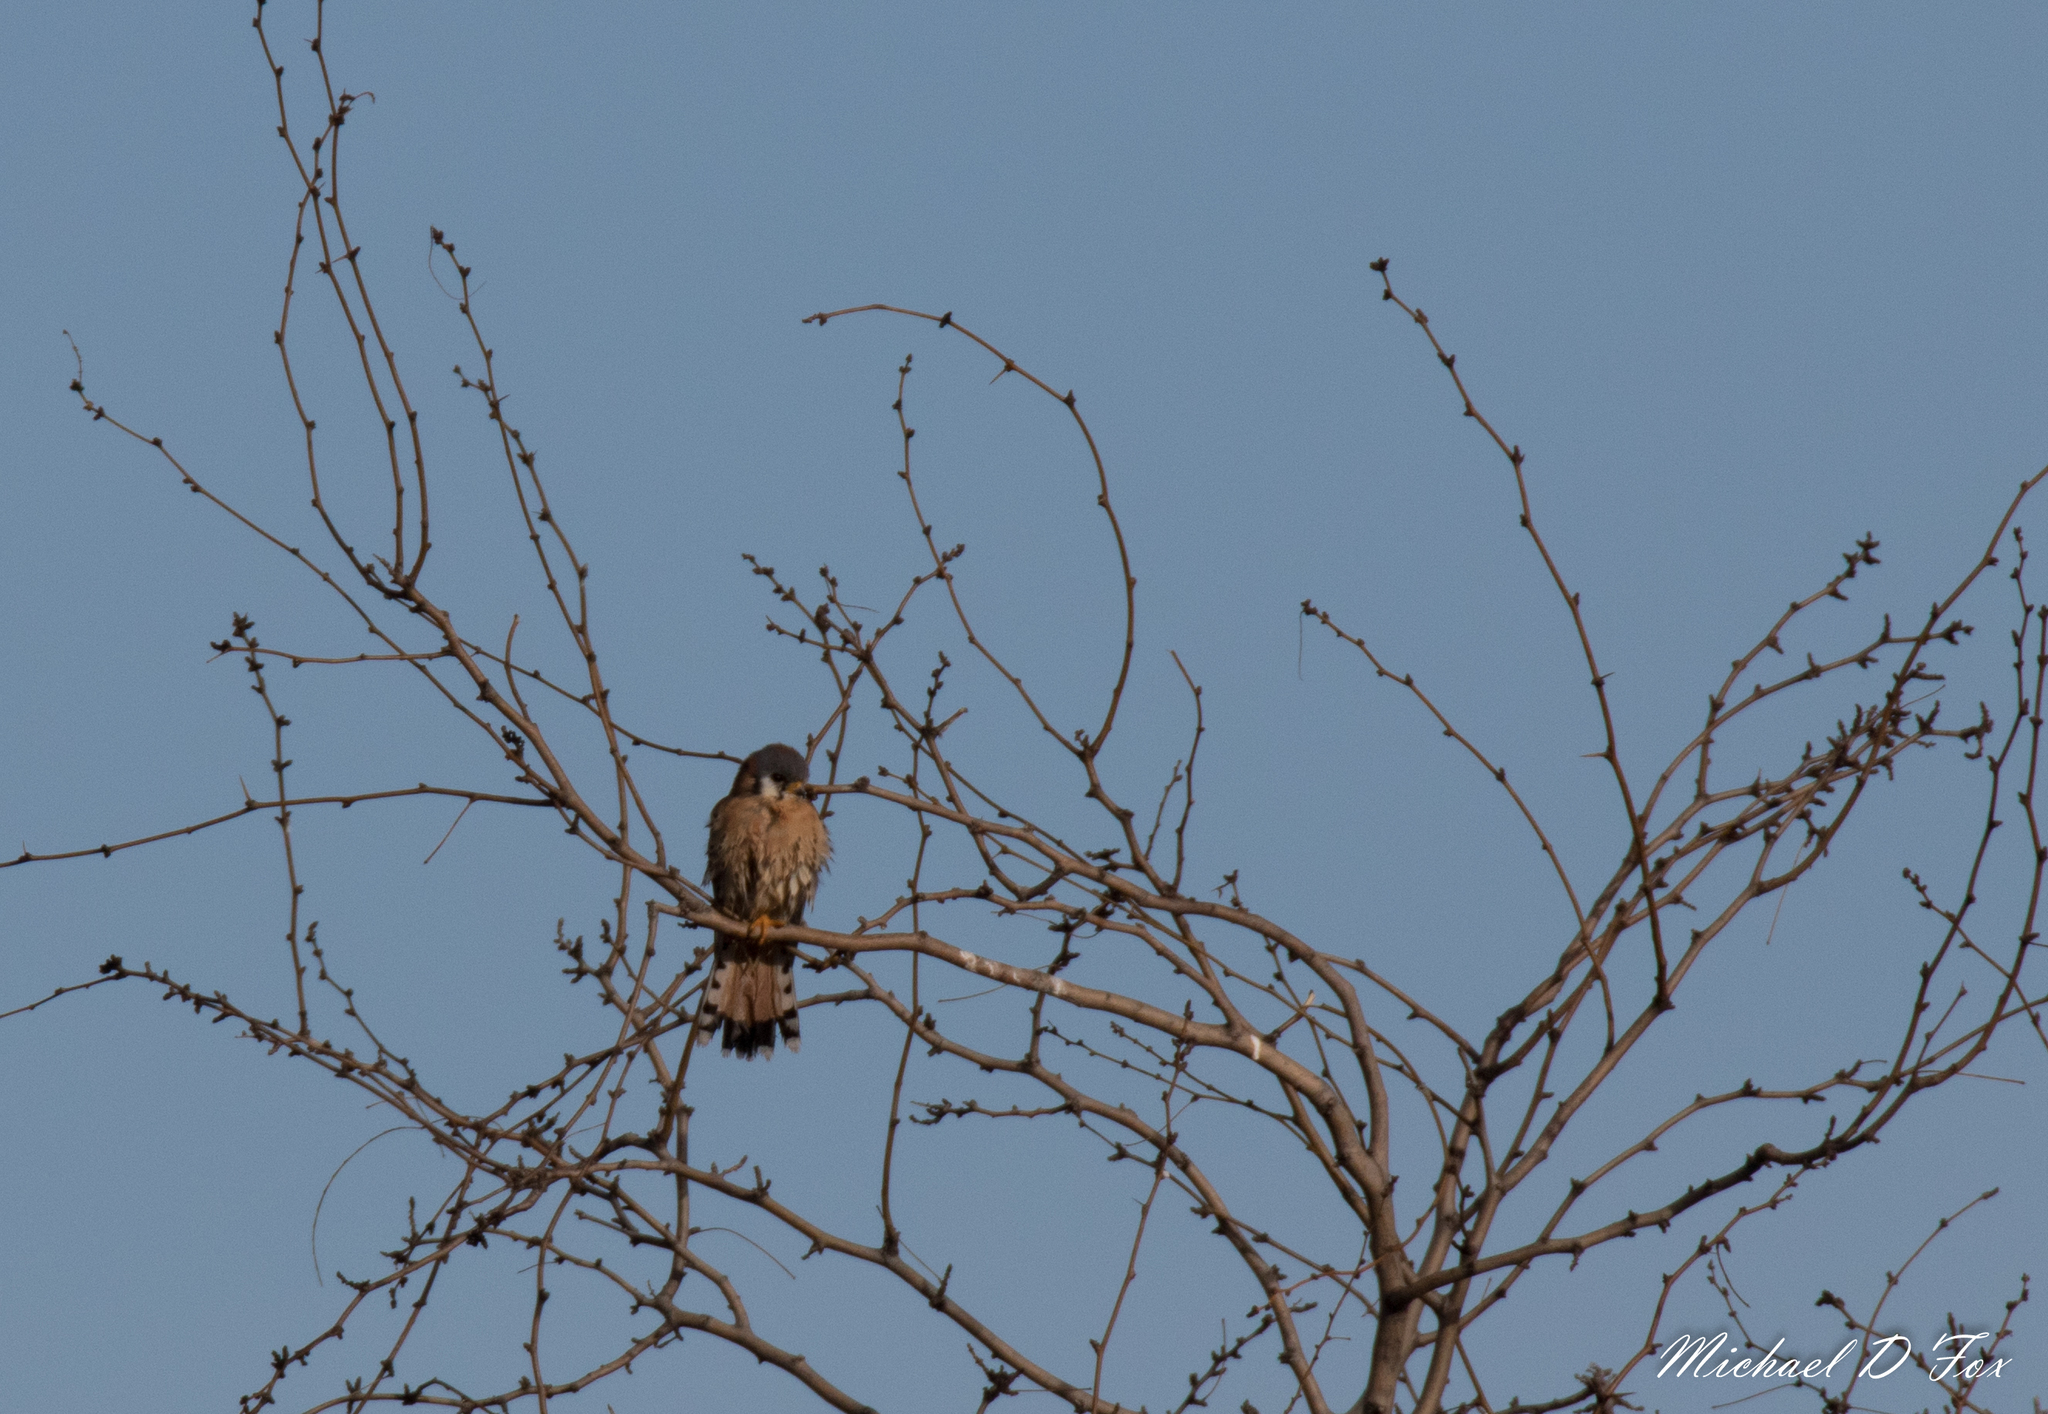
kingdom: Animalia
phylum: Chordata
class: Aves
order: Falconiformes
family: Falconidae
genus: Falco
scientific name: Falco sparverius
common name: American kestrel
